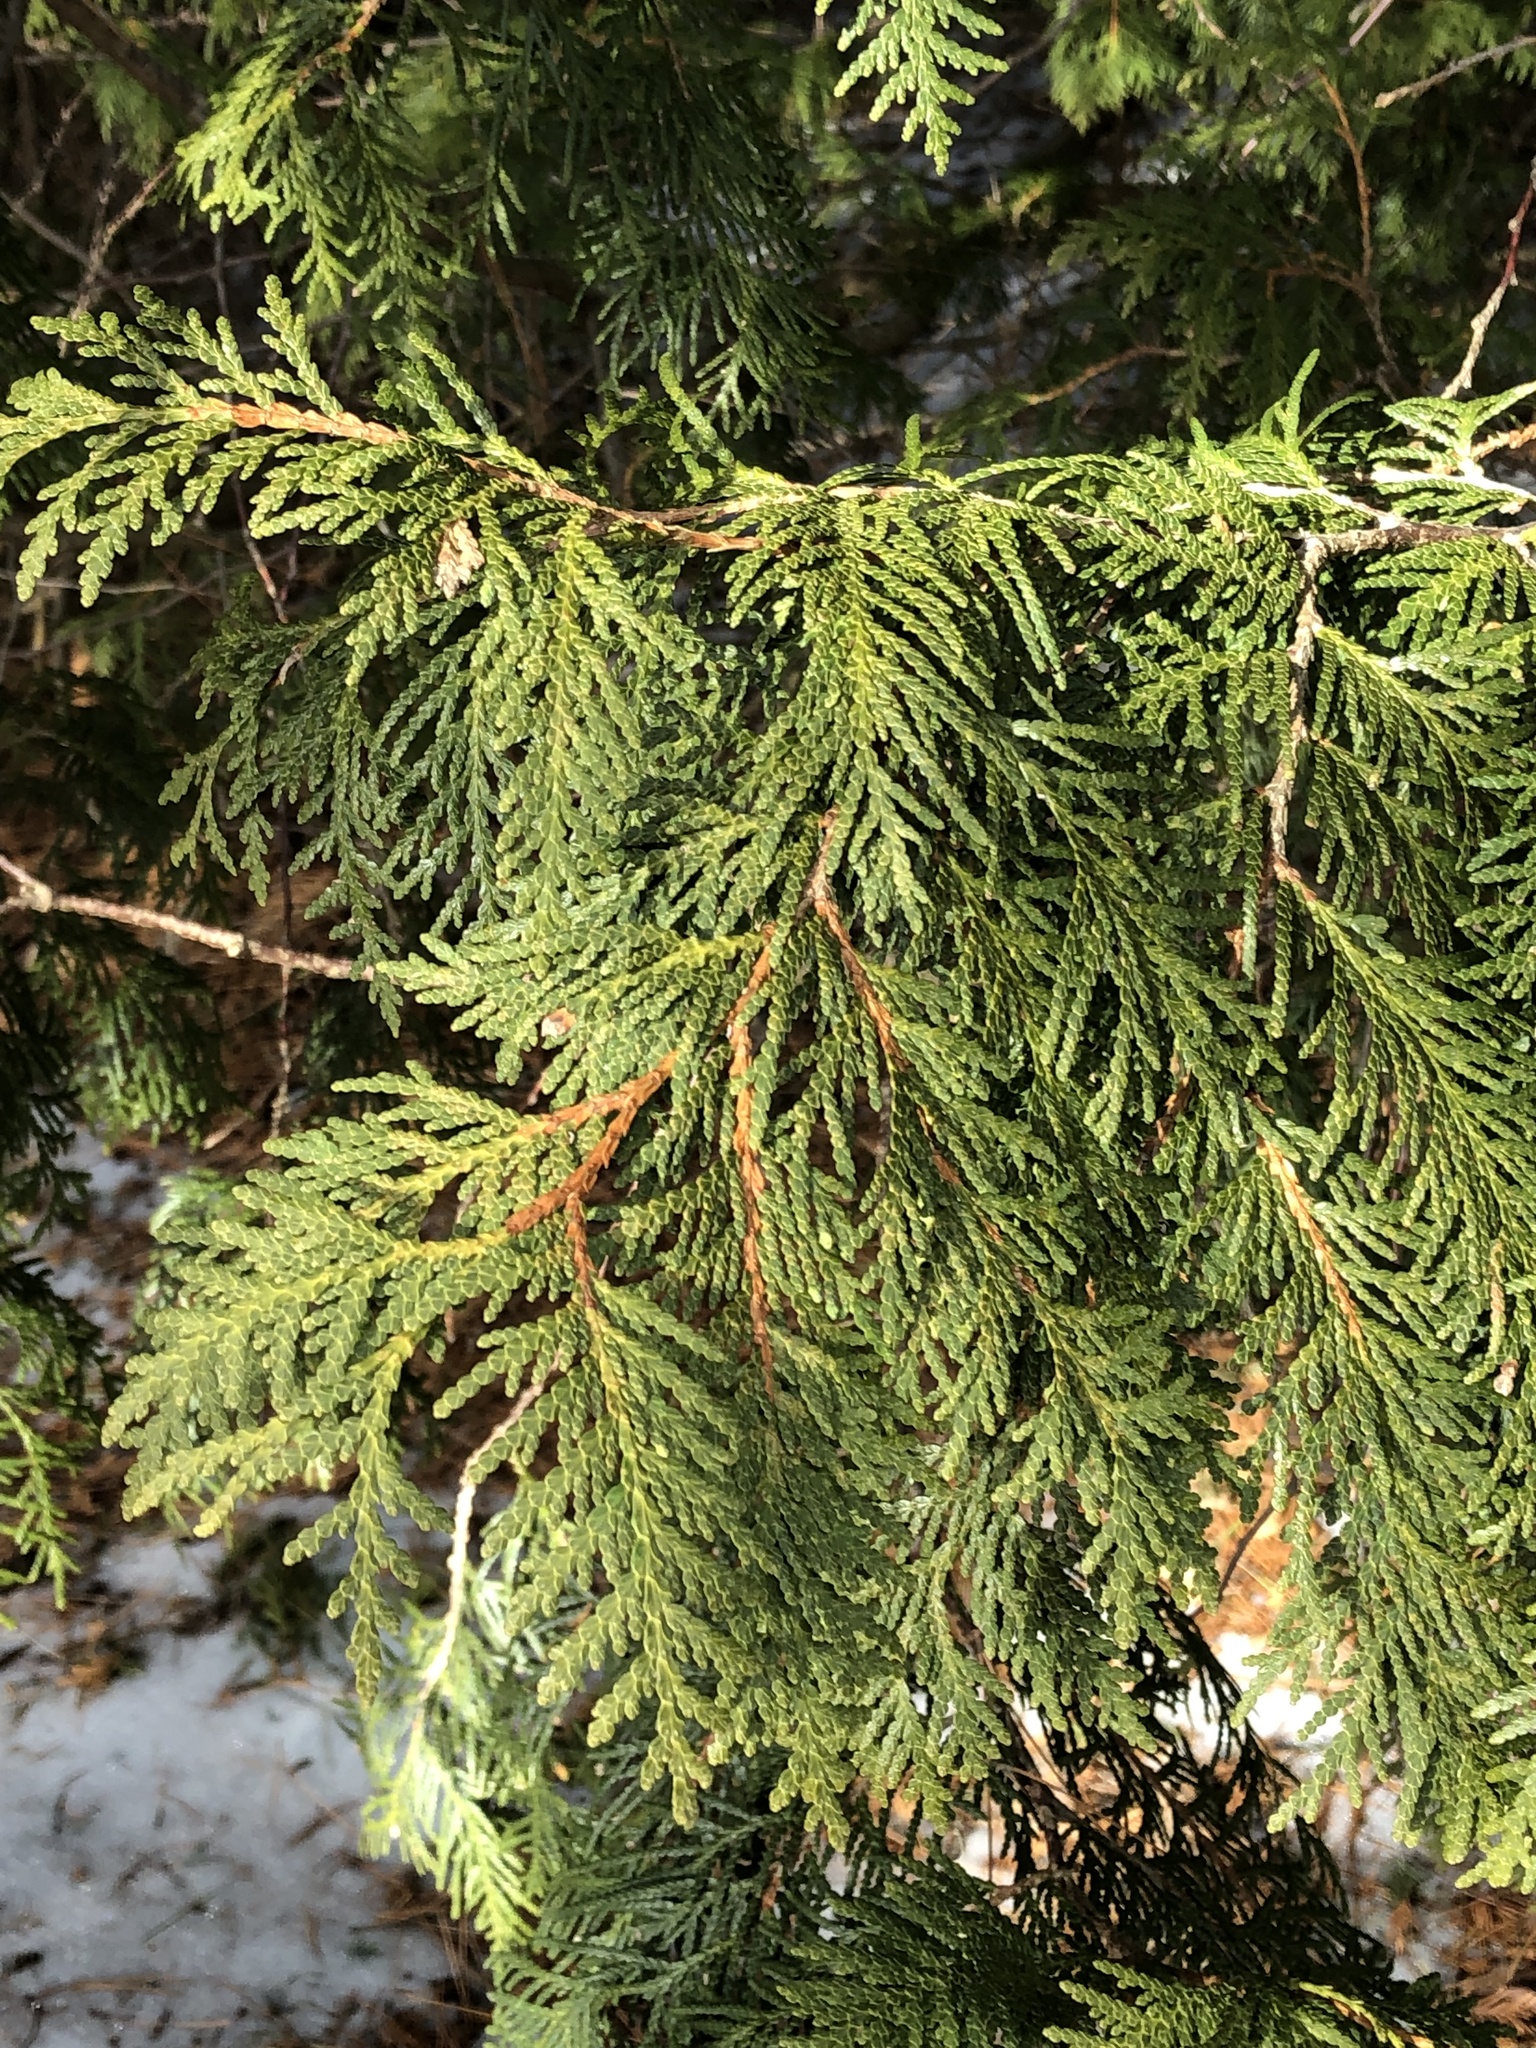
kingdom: Plantae
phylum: Tracheophyta
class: Pinopsida
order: Pinales
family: Cupressaceae
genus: Thuja
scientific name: Thuja occidentalis
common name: Northern white-cedar
